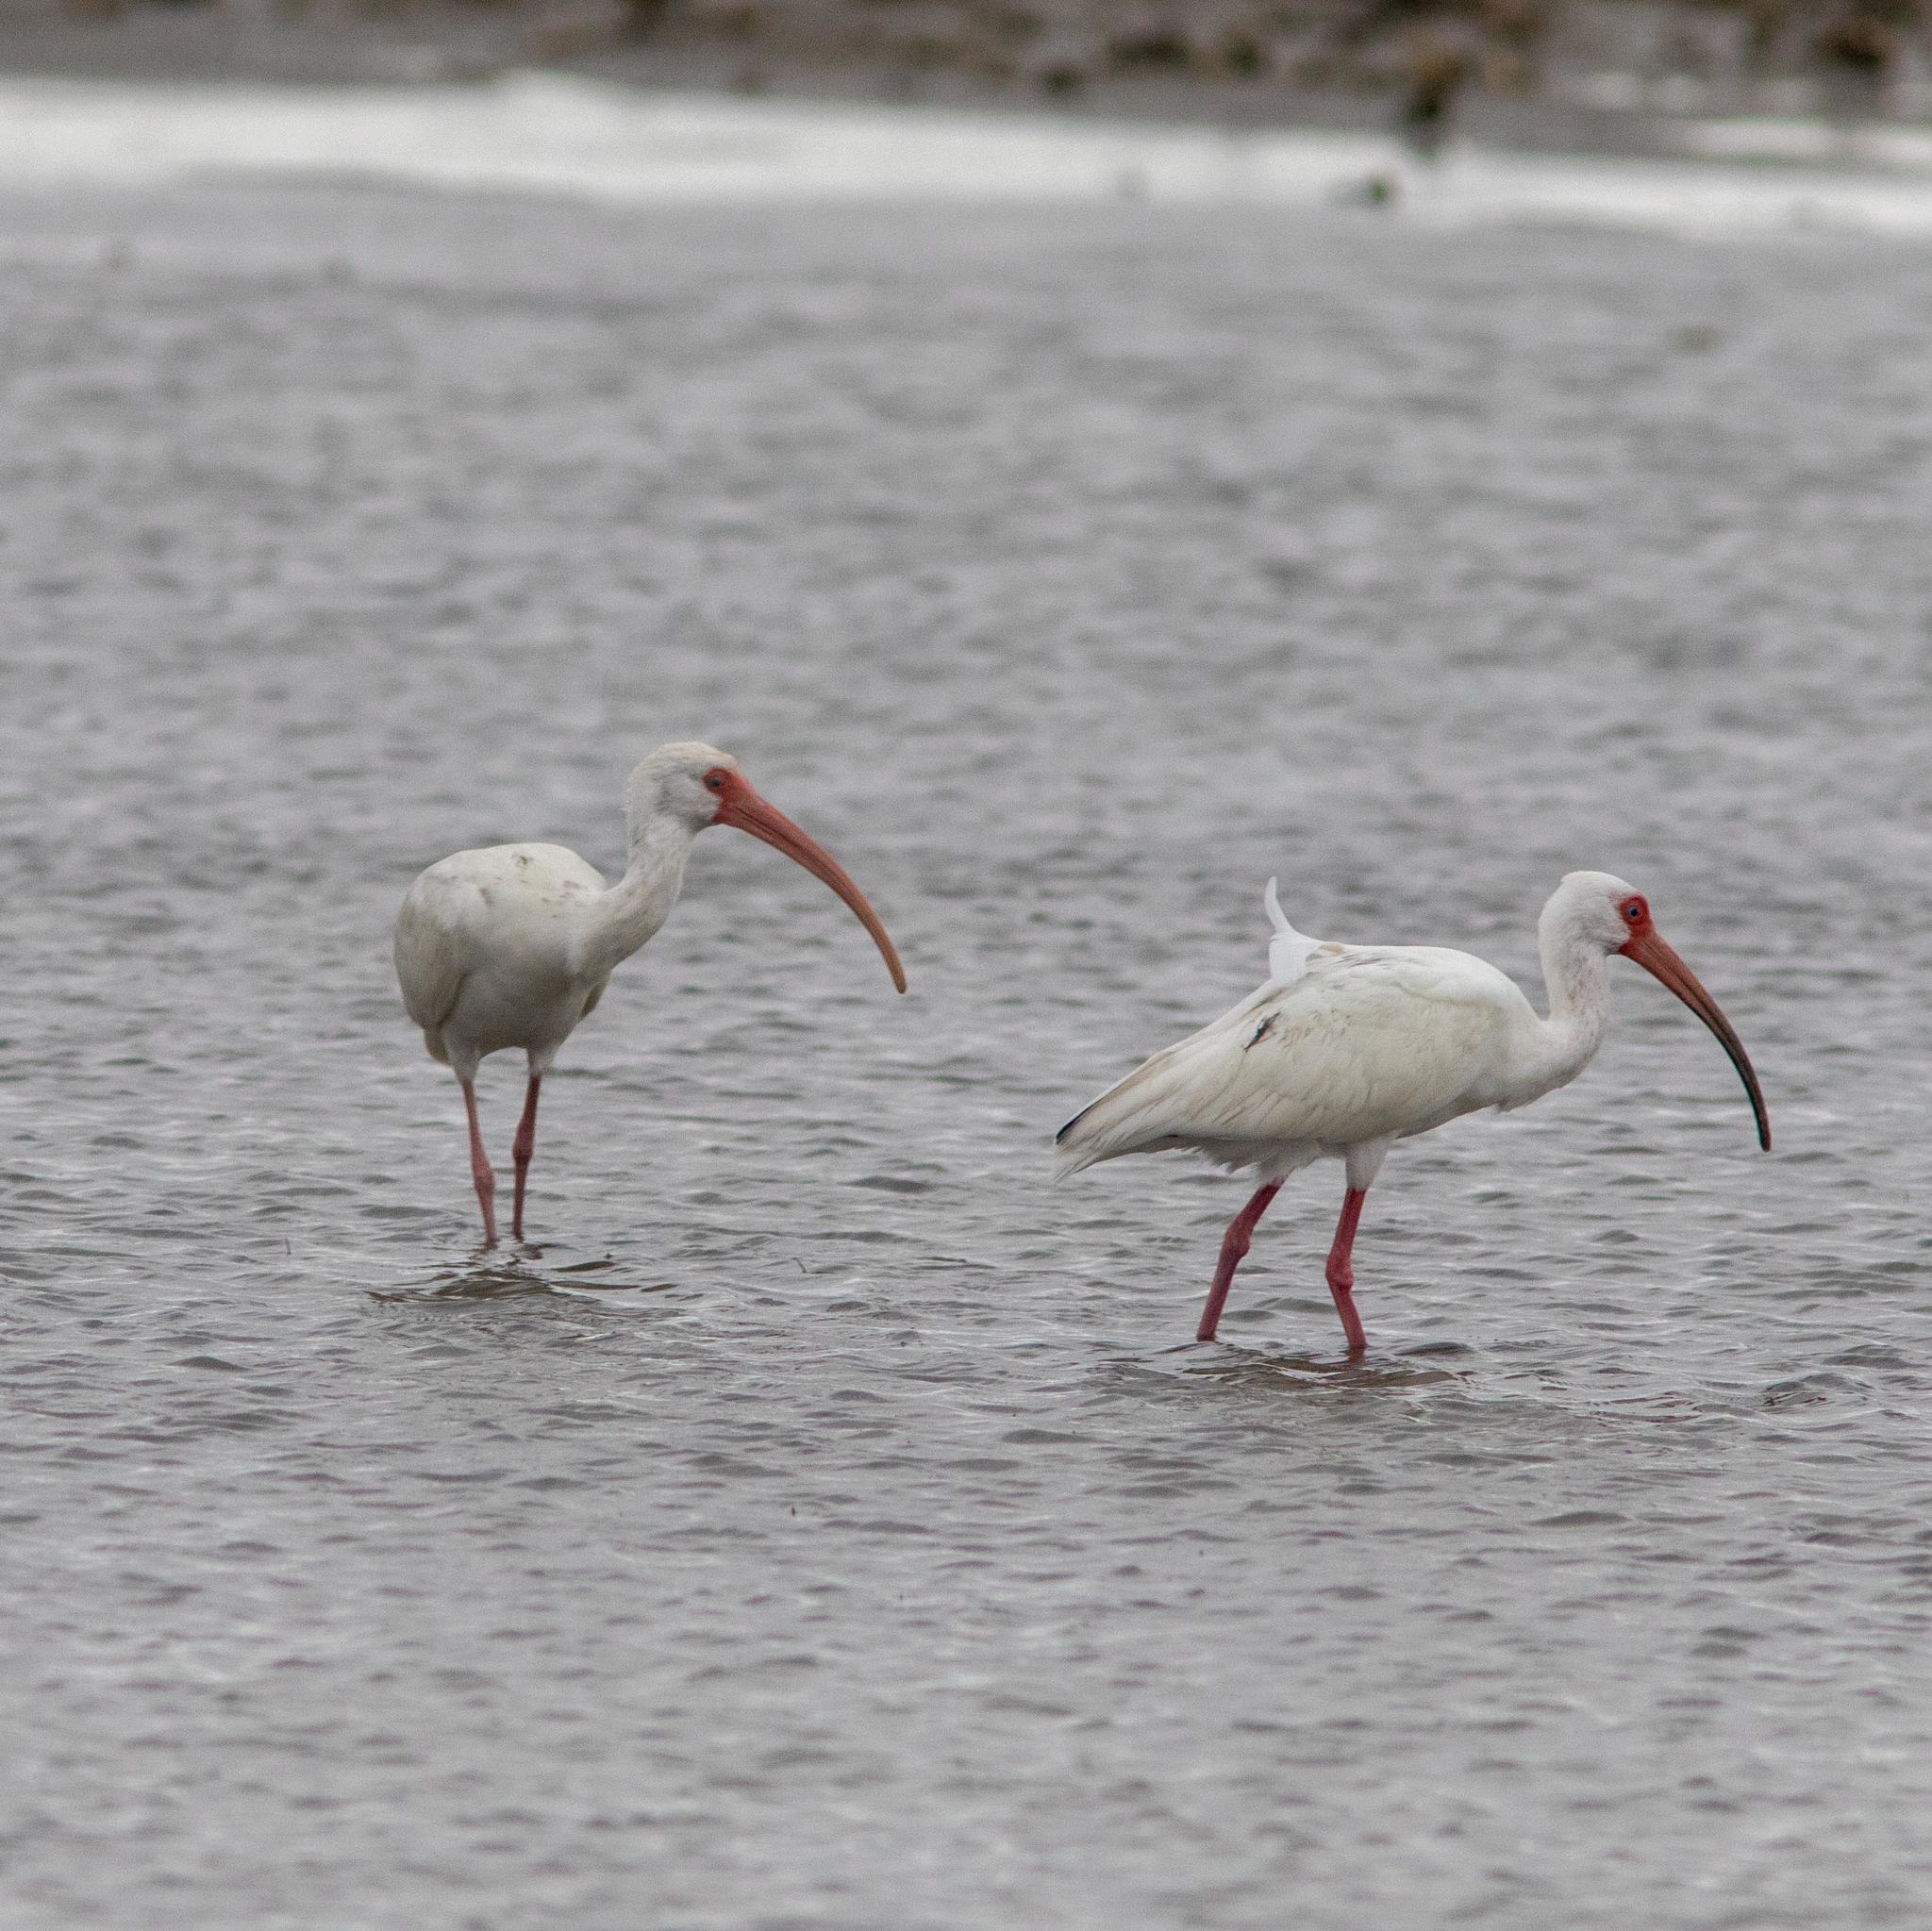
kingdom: Animalia
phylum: Chordata
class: Aves
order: Pelecaniformes
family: Threskiornithidae
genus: Eudocimus
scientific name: Eudocimus albus
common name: White ibis
